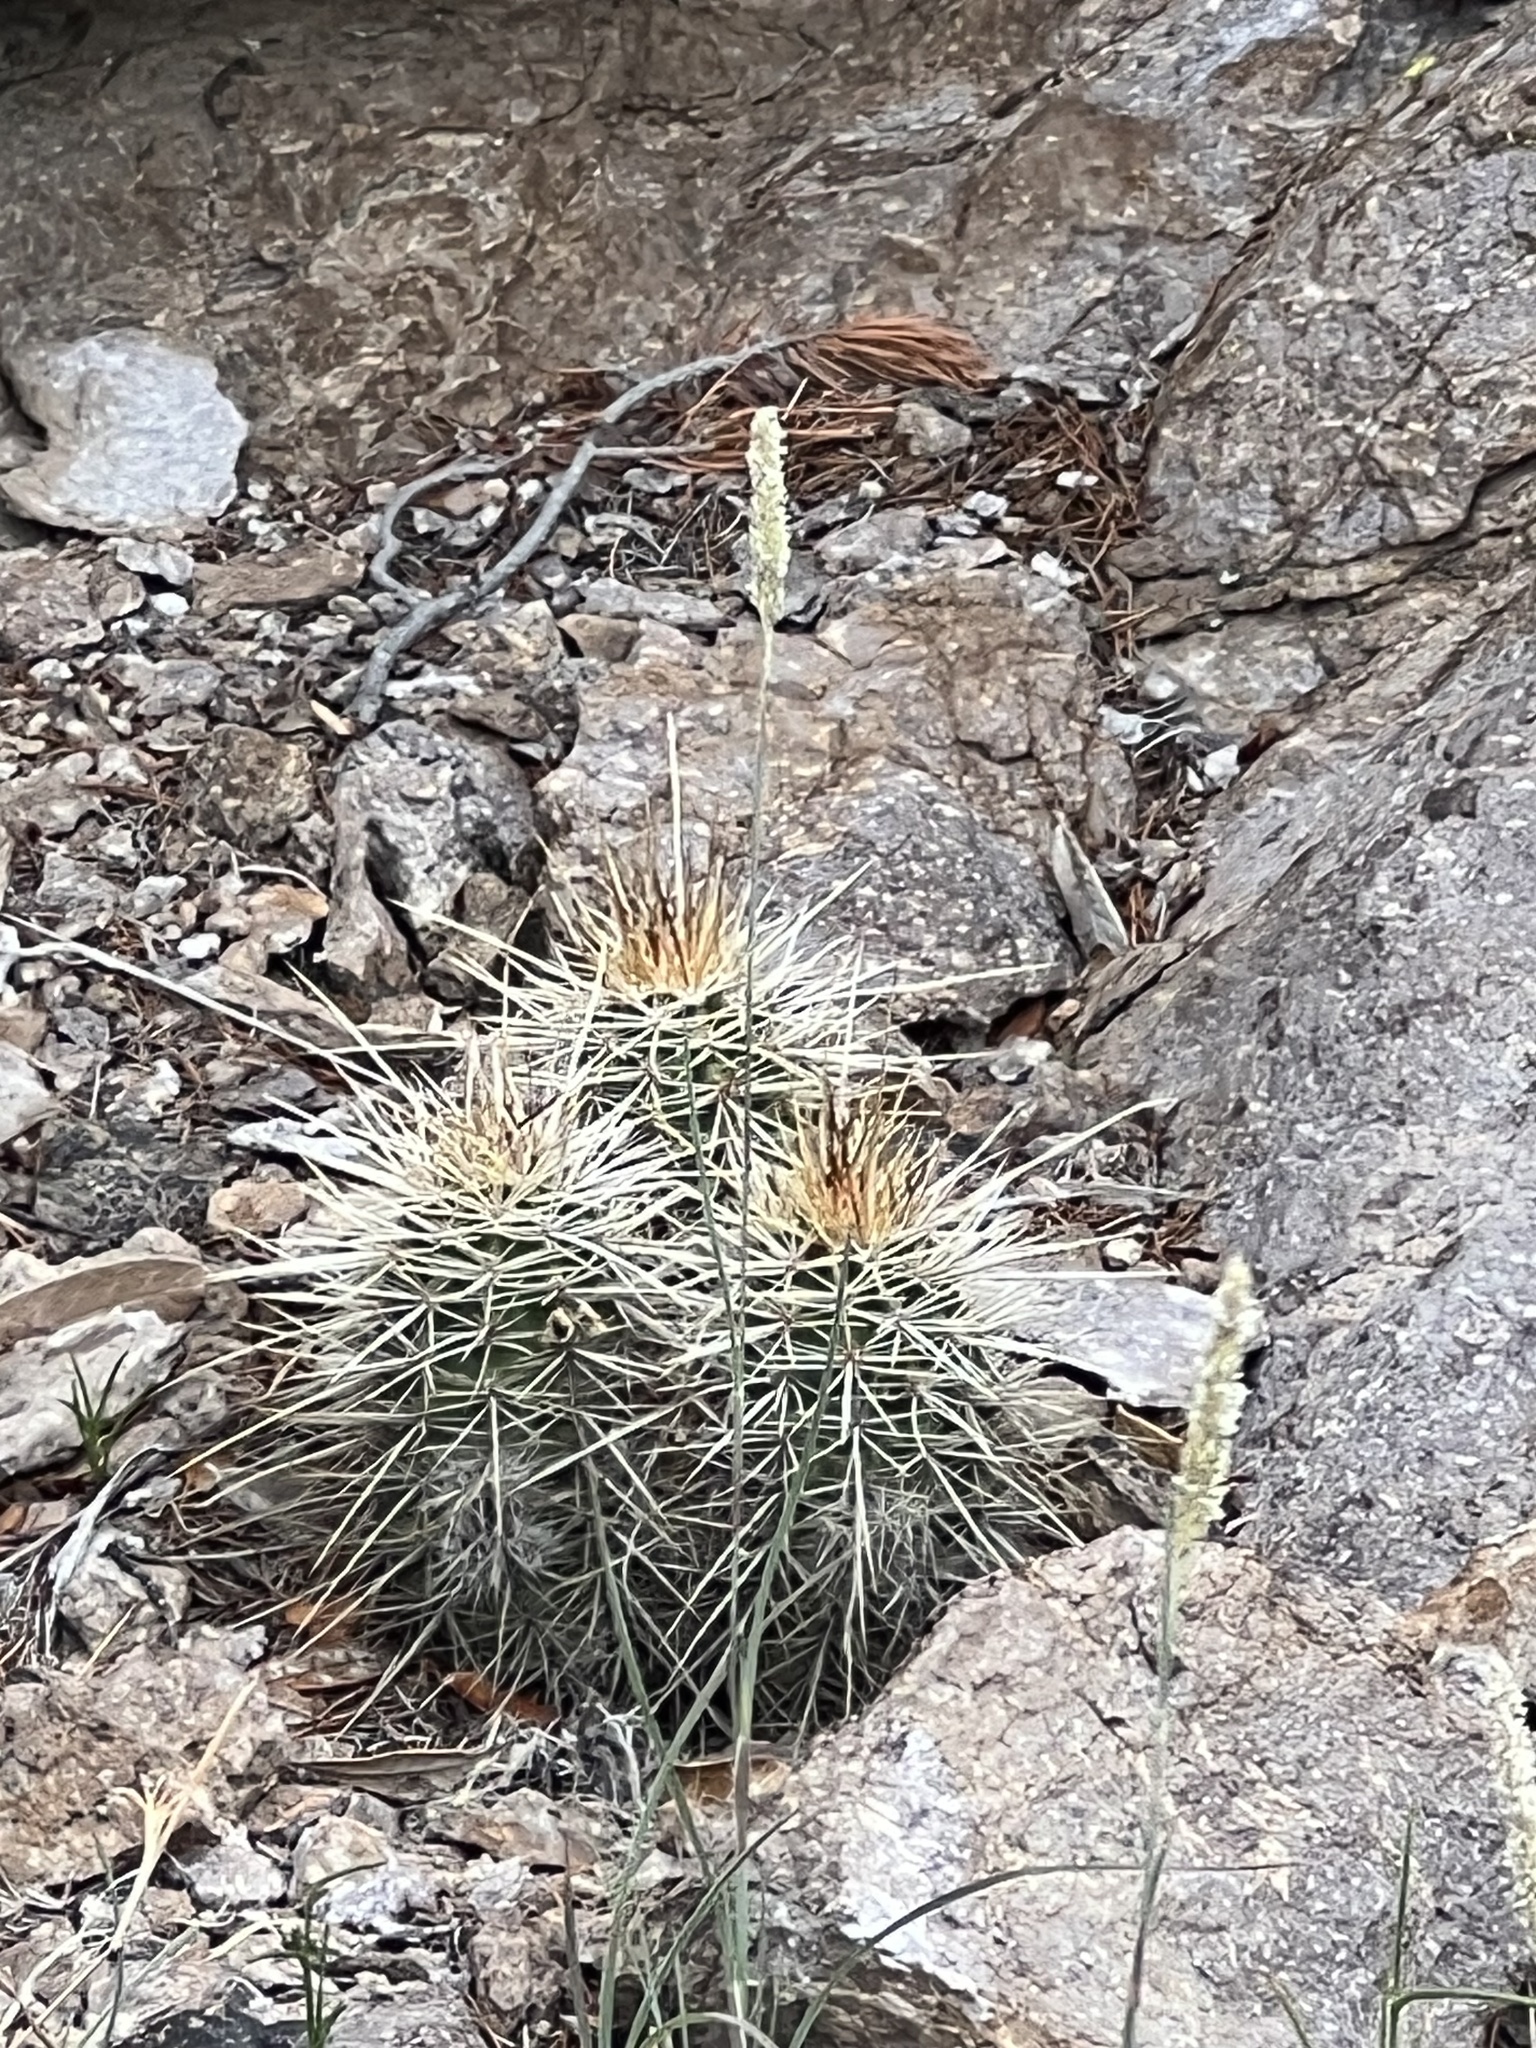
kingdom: Plantae
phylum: Tracheophyta
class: Magnoliopsida
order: Caryophyllales
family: Cactaceae
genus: Echinocereus
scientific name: Echinocereus coccineus
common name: Scarlet hedgehog cactus
